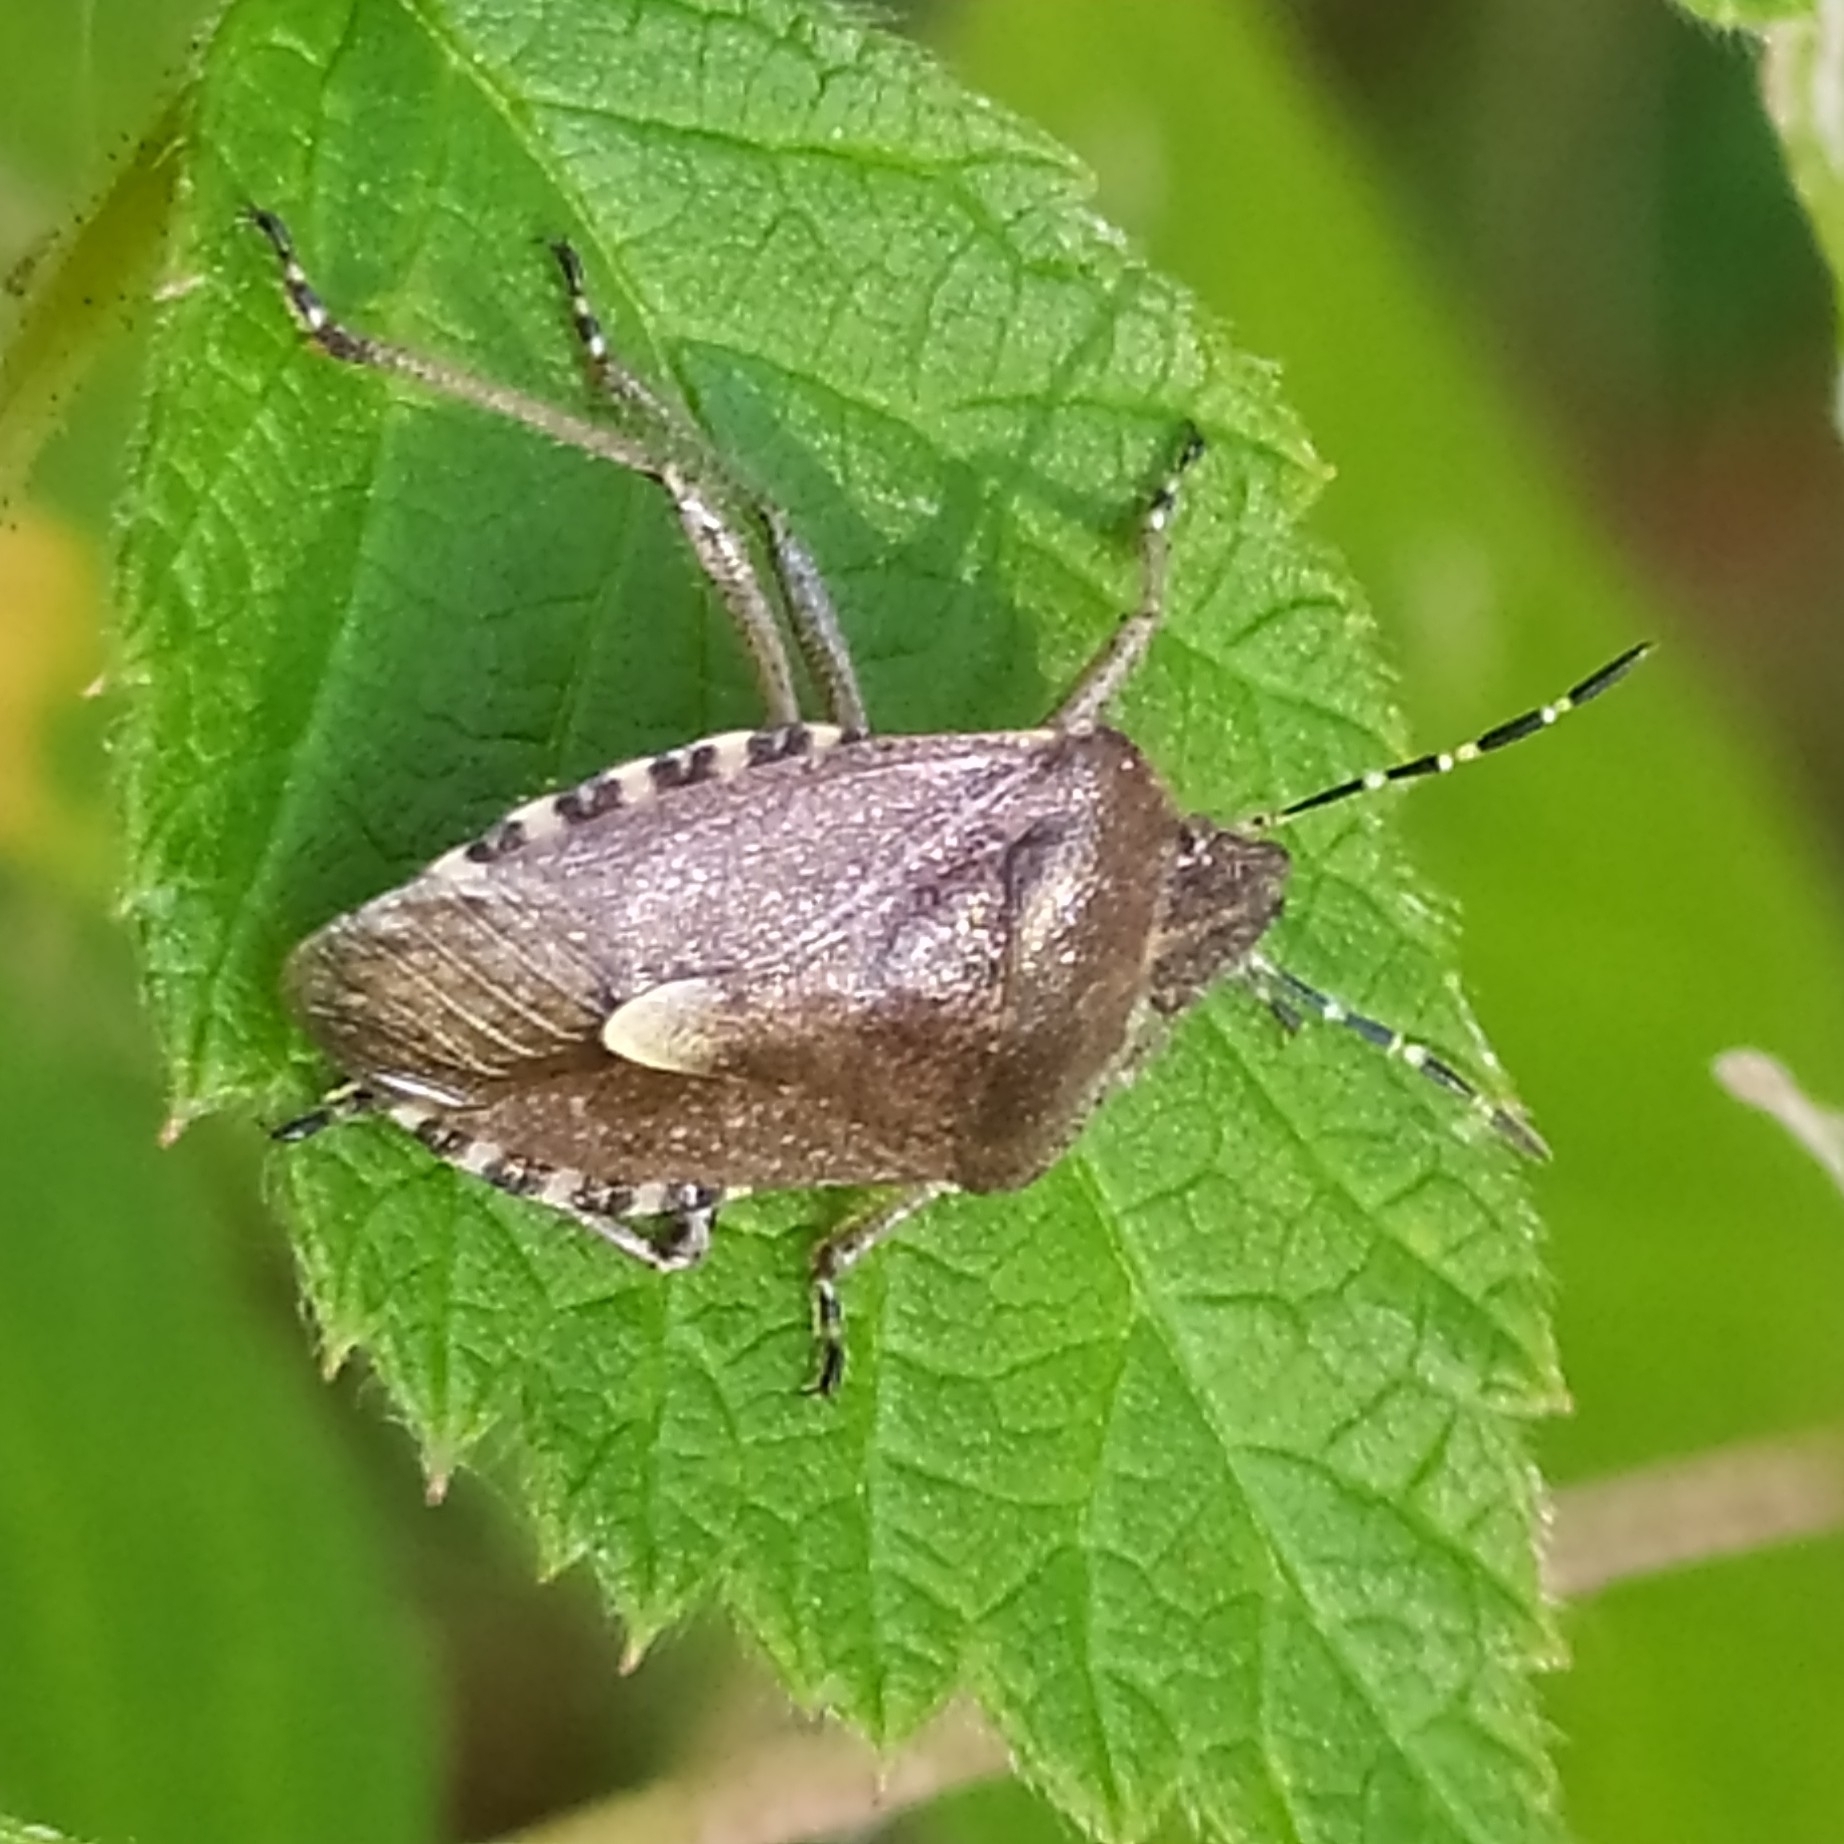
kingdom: Animalia
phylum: Arthropoda
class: Insecta
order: Hemiptera
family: Pentatomidae
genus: Dolycoris
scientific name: Dolycoris baccarum
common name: Sloe bug
